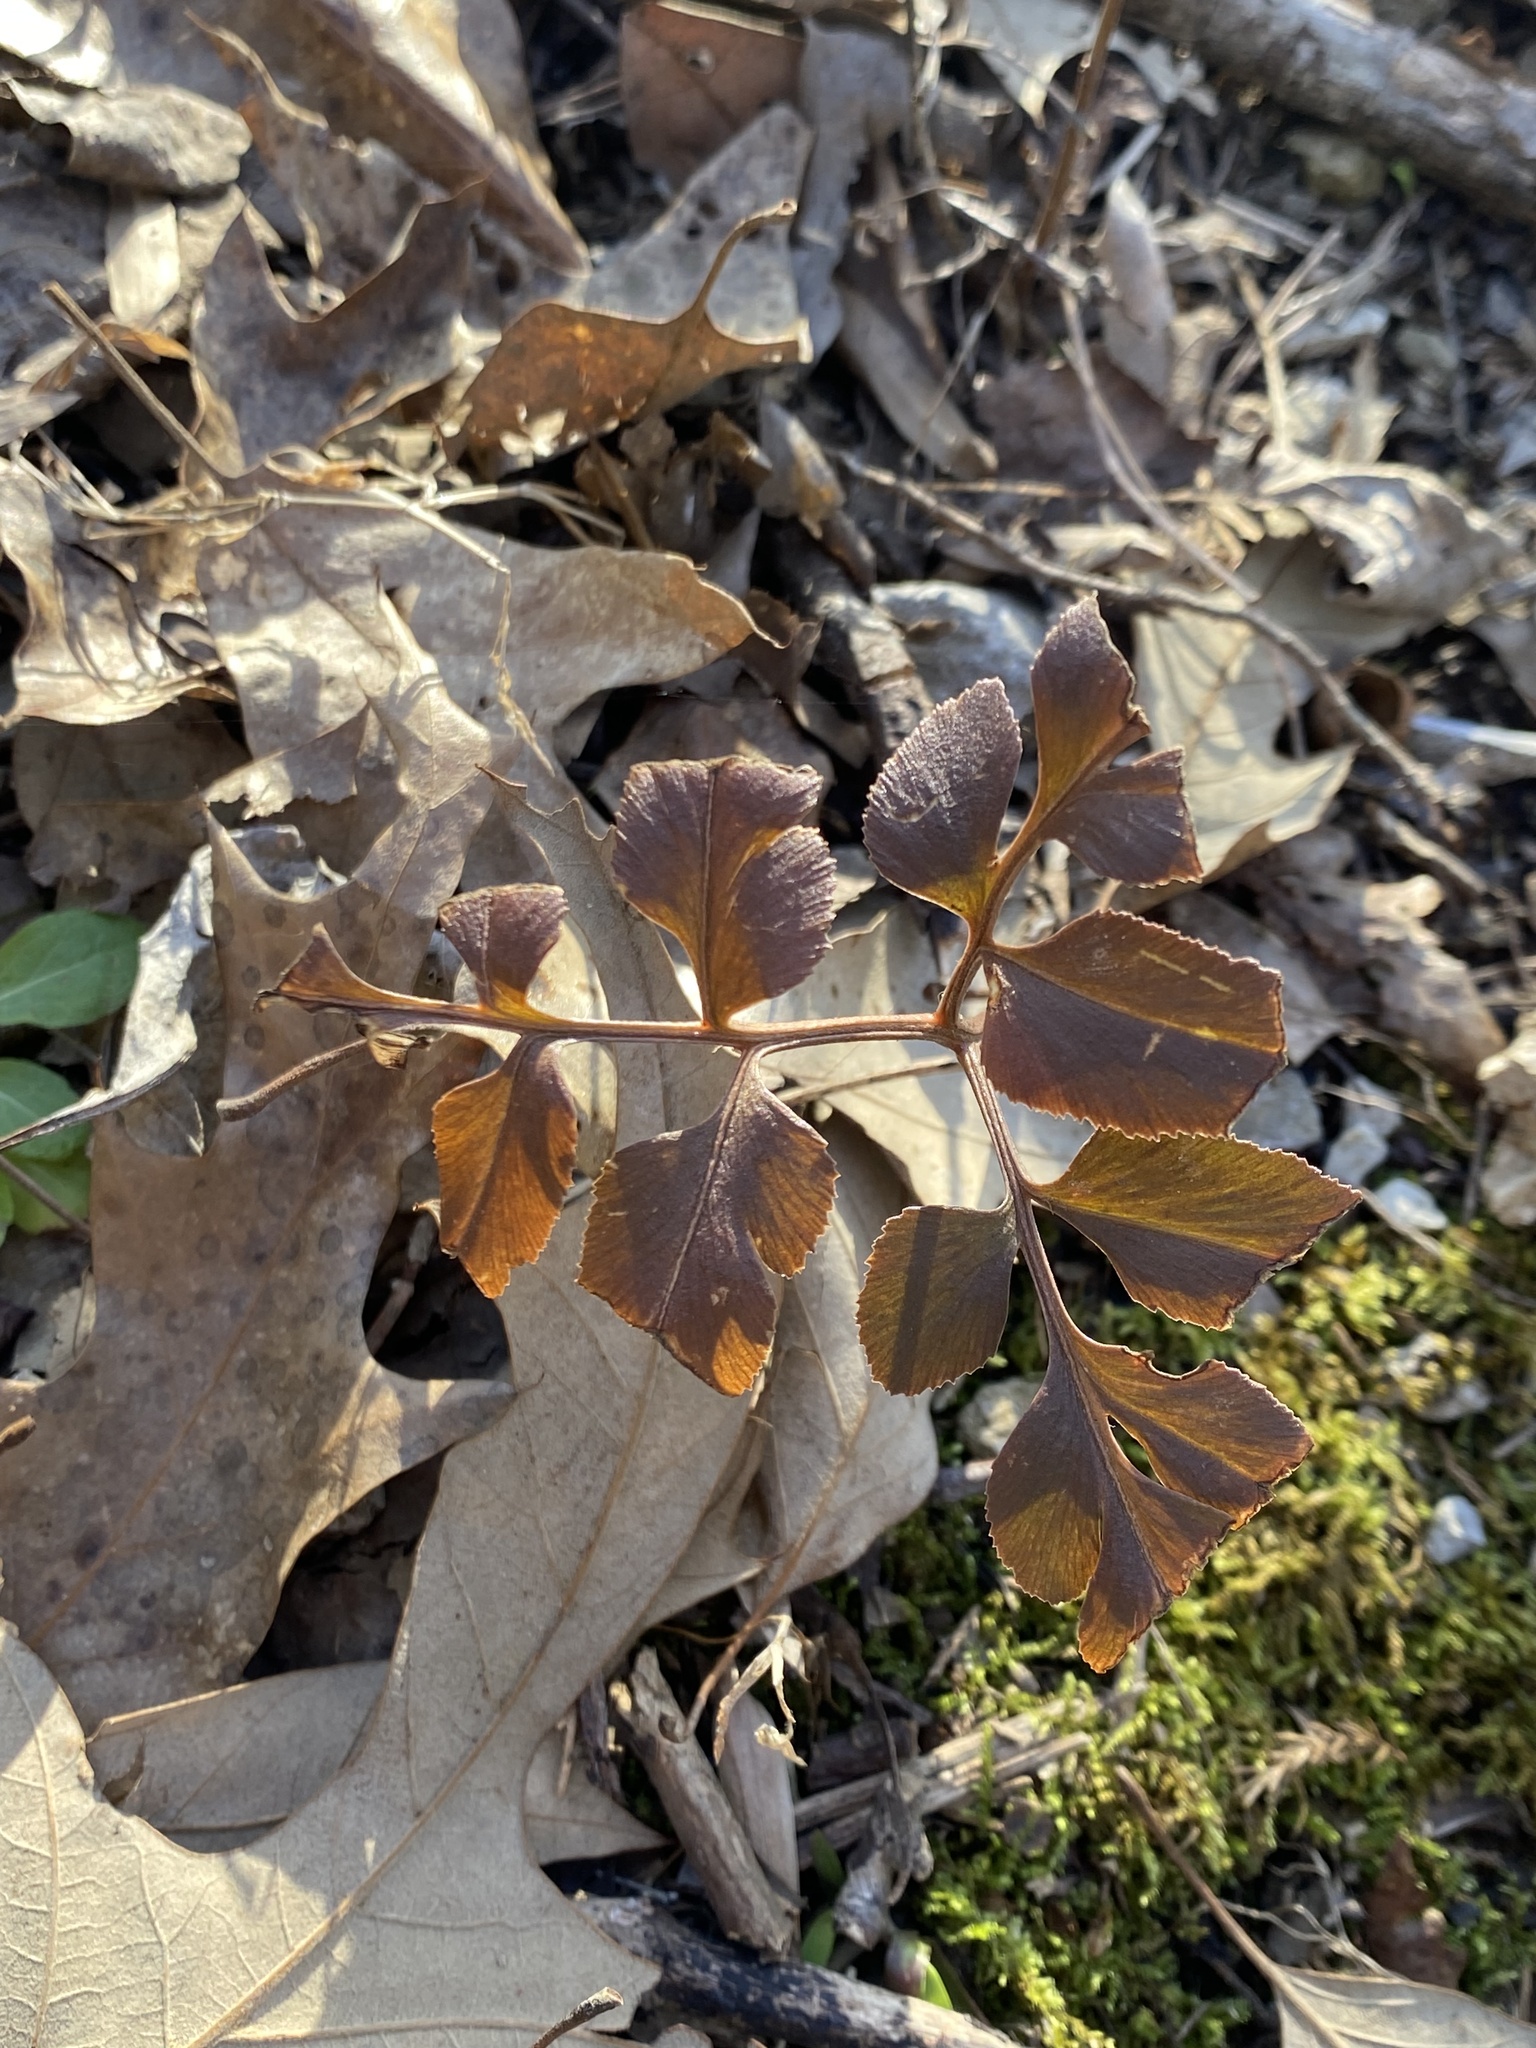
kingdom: Plantae
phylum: Tracheophyta
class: Polypodiopsida
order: Ophioglossales
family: Ophioglossaceae
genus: Sceptridium
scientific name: Sceptridium dissectum
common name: Cut-leaved grapefern
